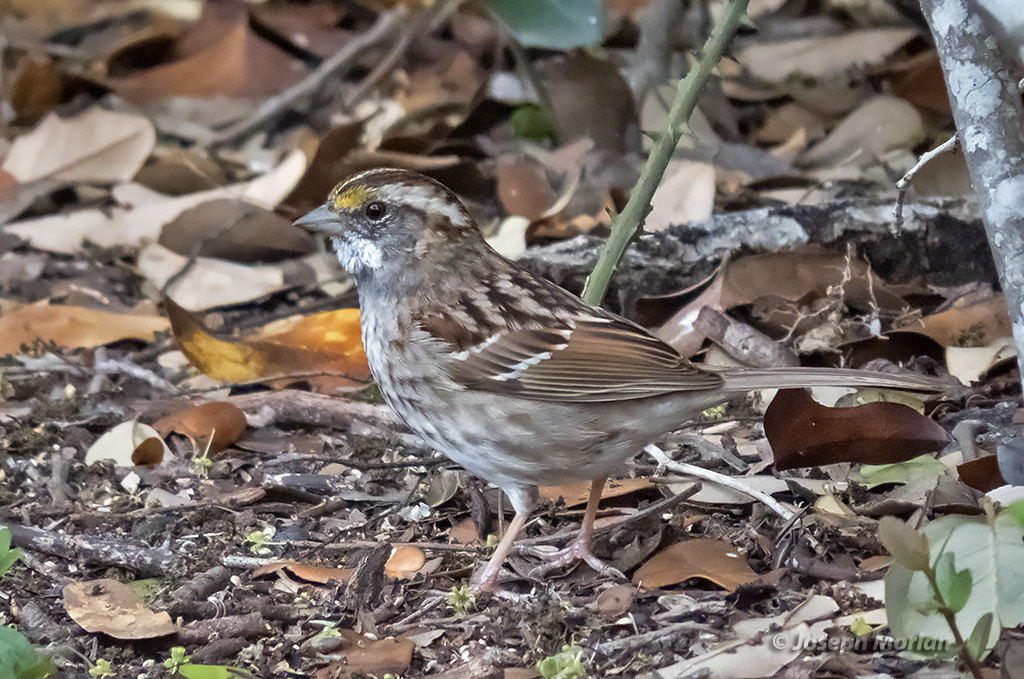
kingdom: Animalia
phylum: Chordata
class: Aves
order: Passeriformes
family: Passerellidae
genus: Zonotrichia
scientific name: Zonotrichia albicollis
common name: White-throated sparrow
